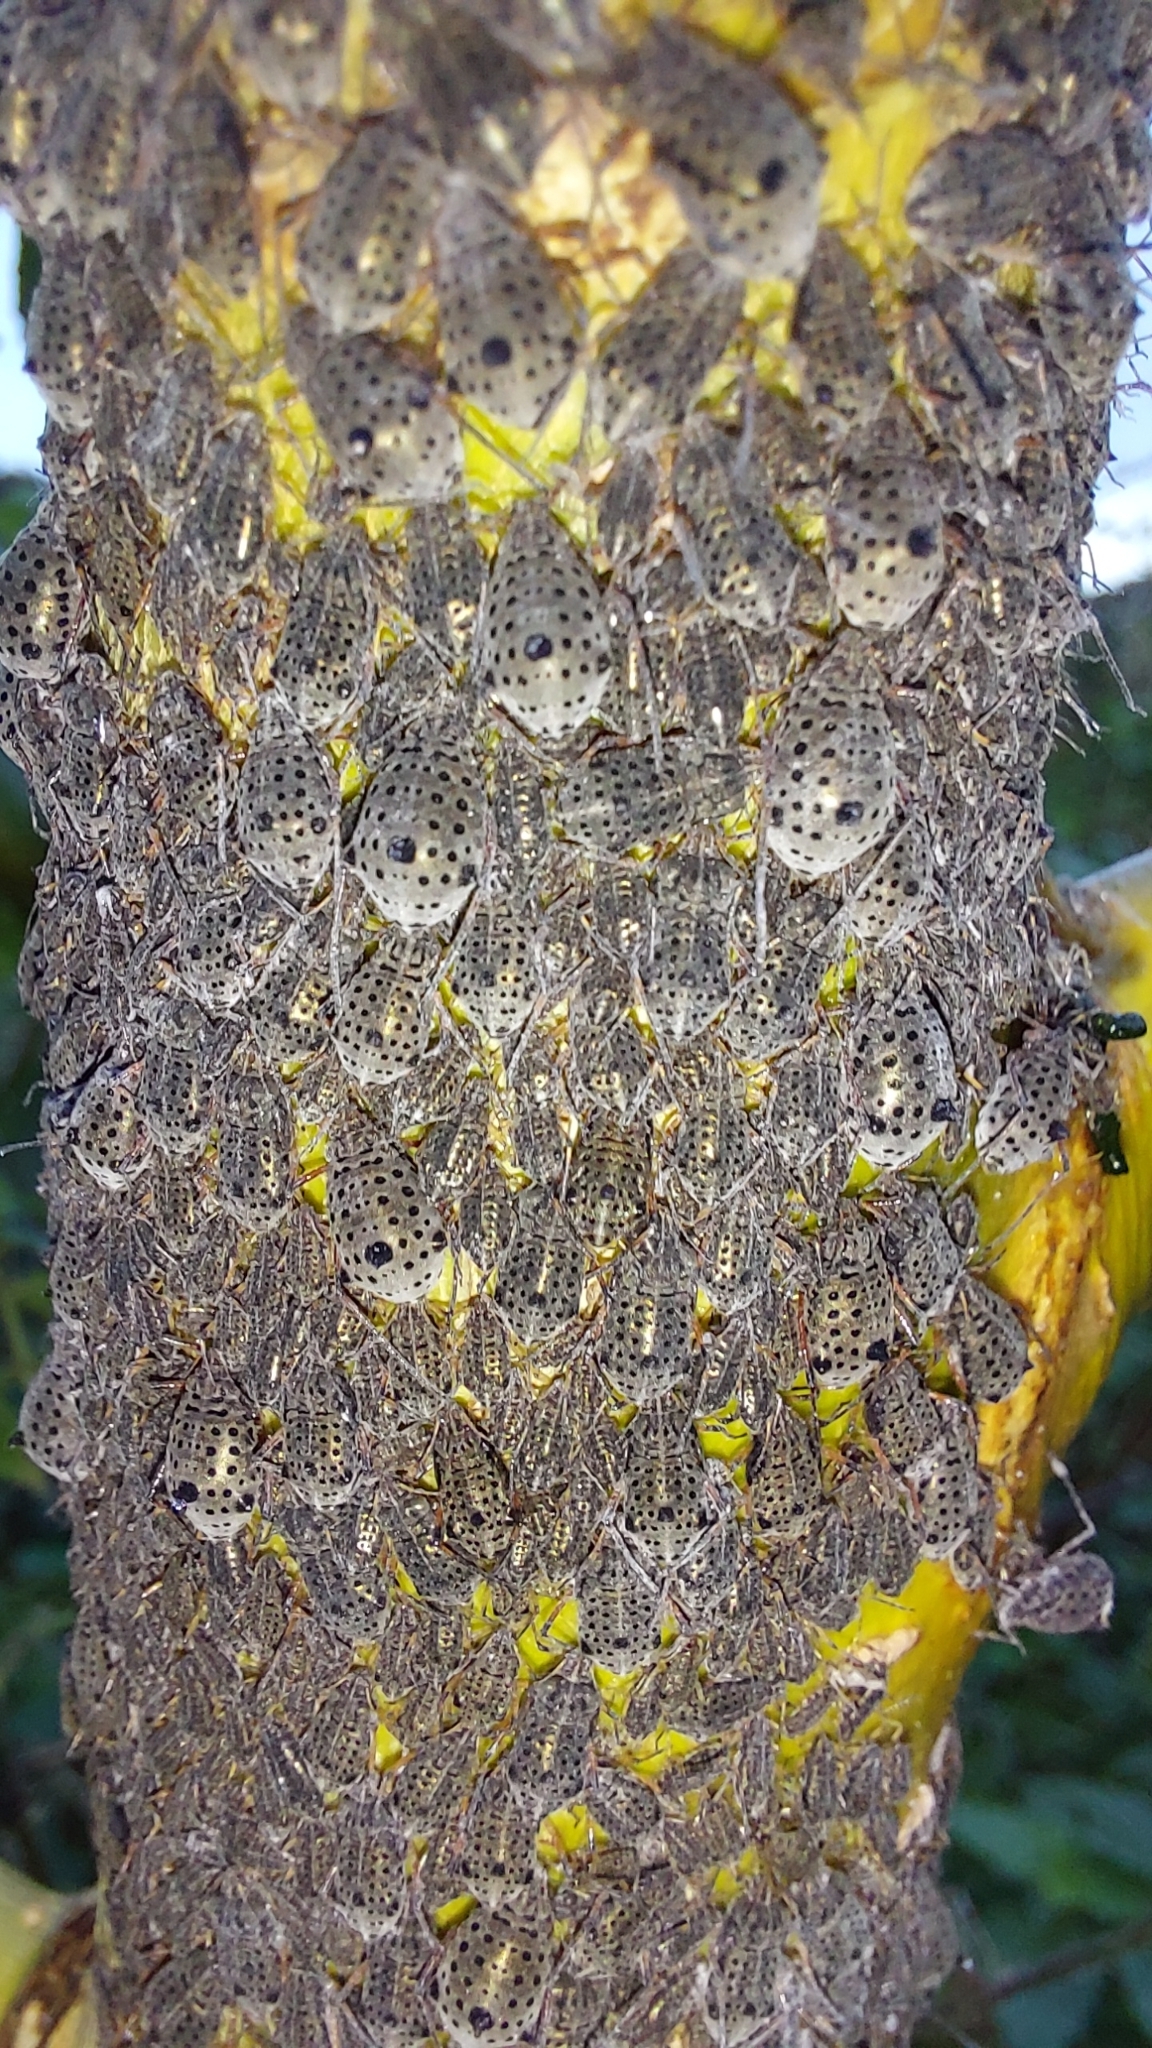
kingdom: Animalia
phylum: Arthropoda
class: Insecta
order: Hemiptera
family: Aphididae
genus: Tuberolachnus
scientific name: Tuberolachnus salignus
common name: Giant willow aphid
